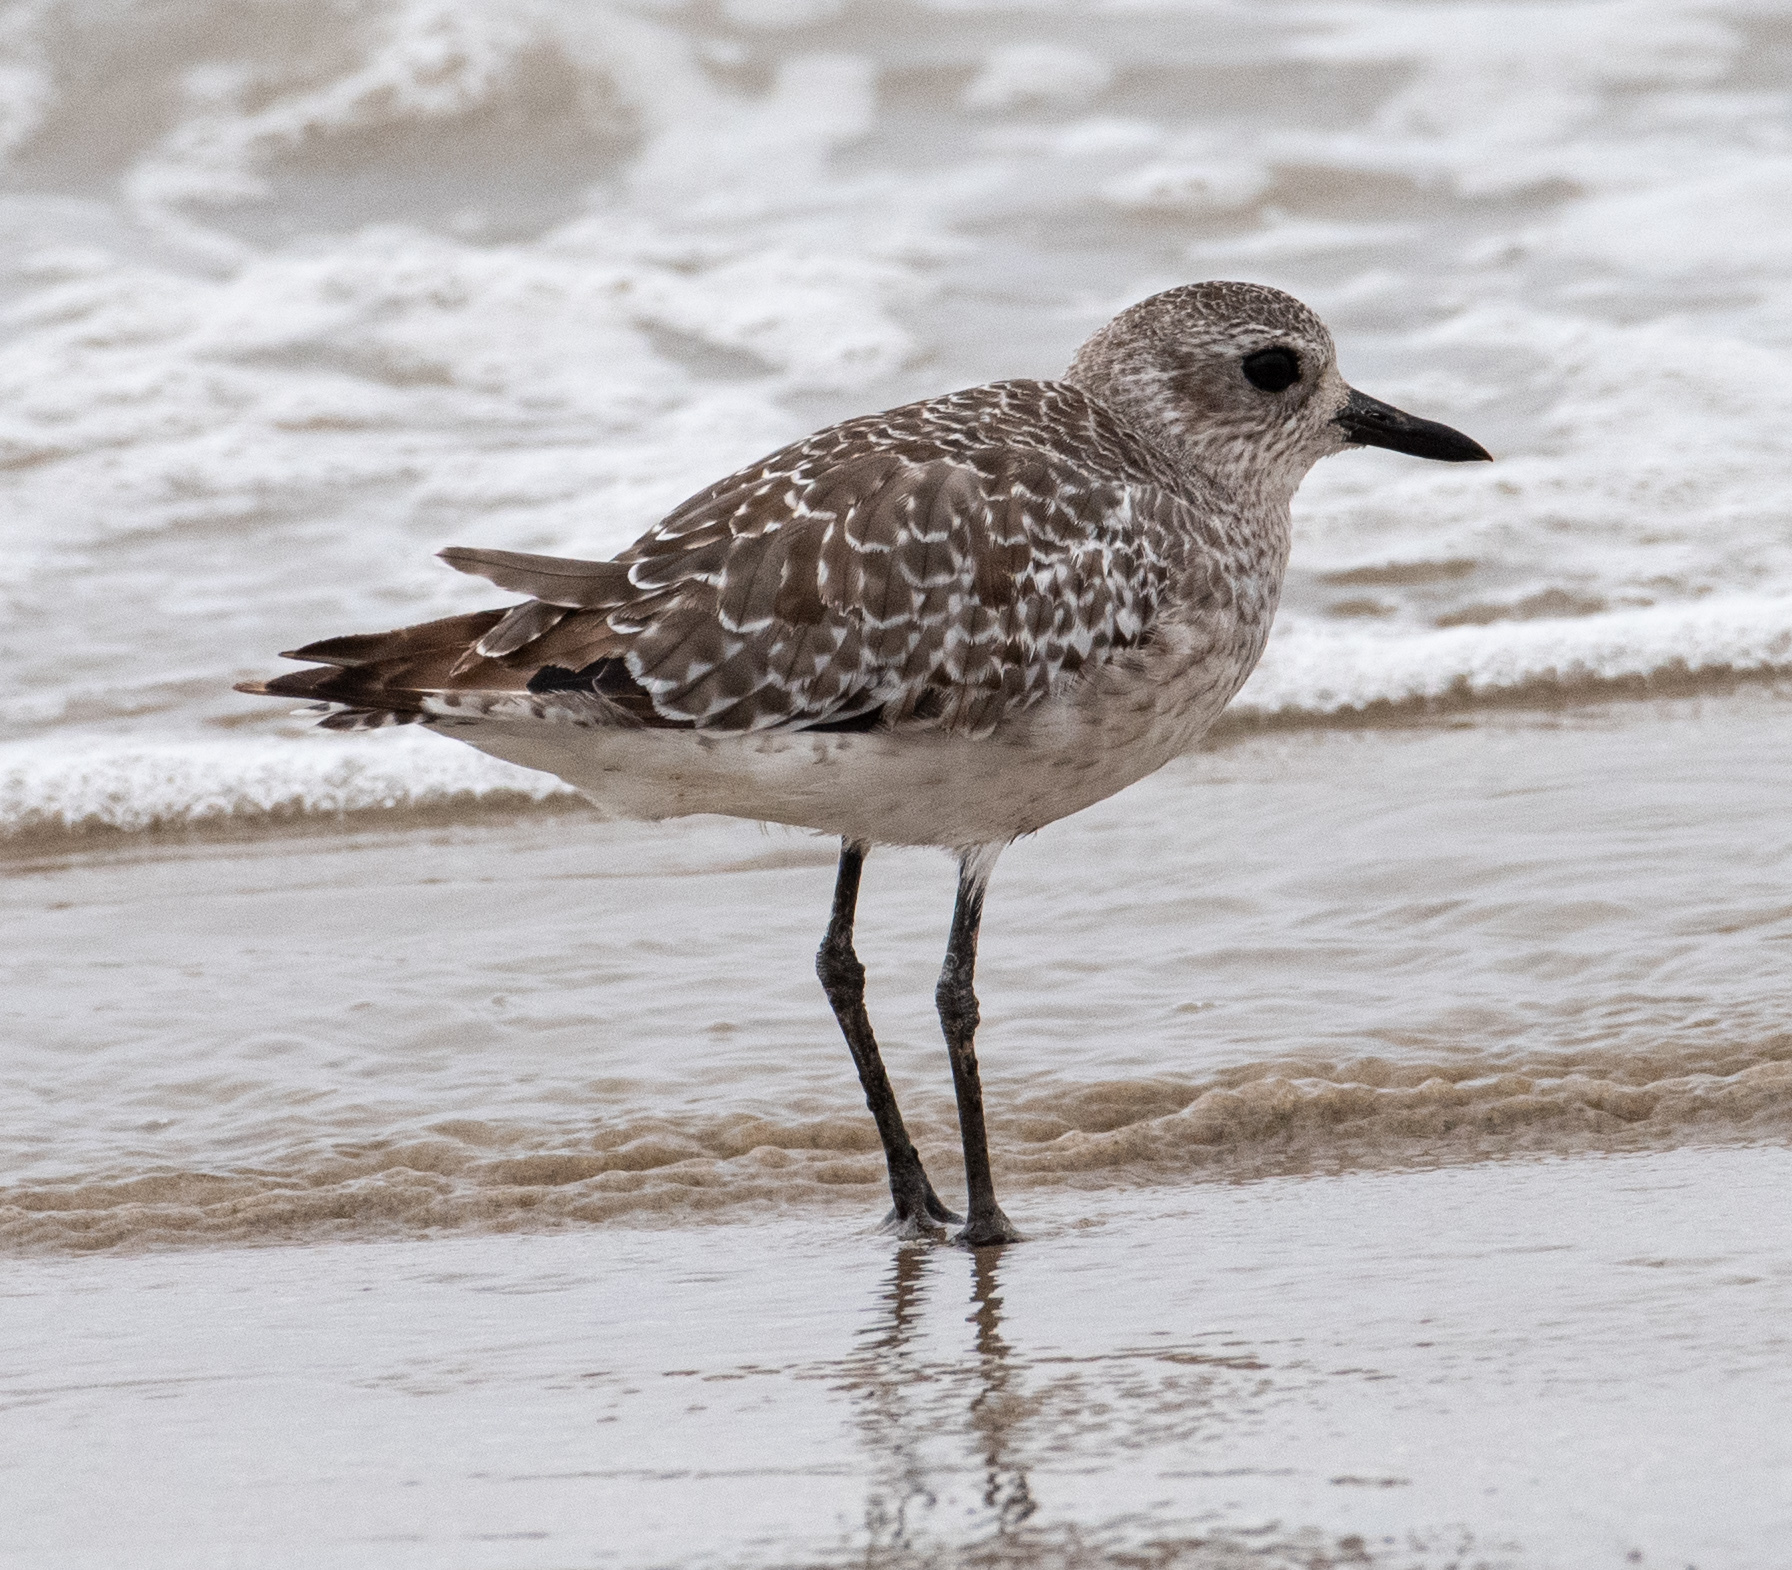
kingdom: Animalia
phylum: Chordata
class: Aves
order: Charadriiformes
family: Charadriidae
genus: Pluvialis
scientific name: Pluvialis squatarola
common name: Grey plover
